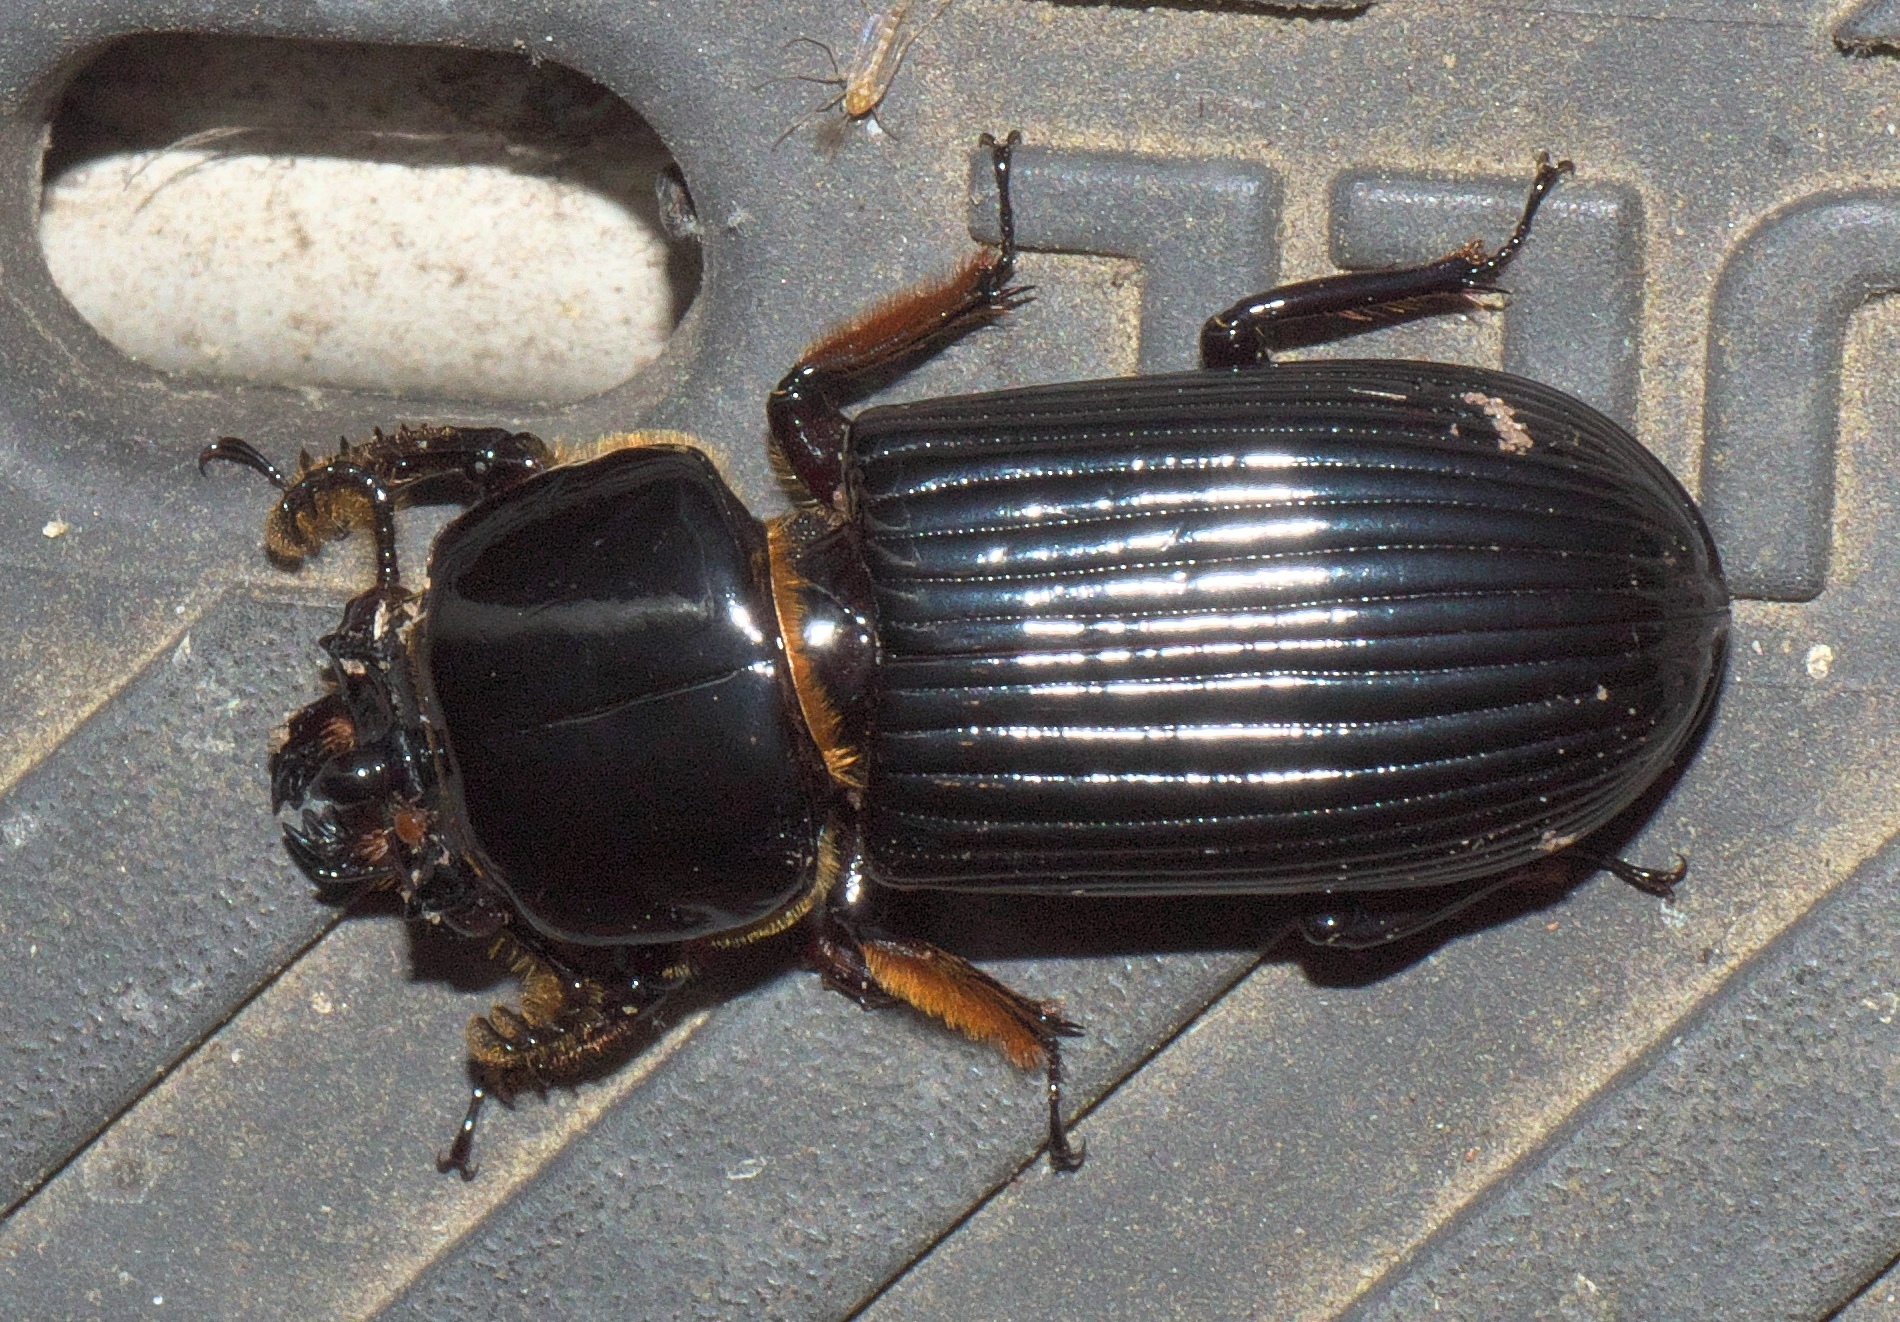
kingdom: Animalia
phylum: Arthropoda
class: Insecta
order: Coleoptera
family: Passalidae
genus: Odontotaenius
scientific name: Odontotaenius disjunctus
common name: Patent leather beetle
